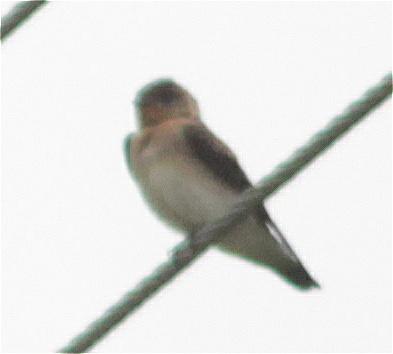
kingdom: Animalia
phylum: Chordata
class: Aves
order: Passeriformes
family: Hirundinidae
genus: Stelgidopteryx
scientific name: Stelgidopteryx ruficollis
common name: Southern rough-winged swallow
